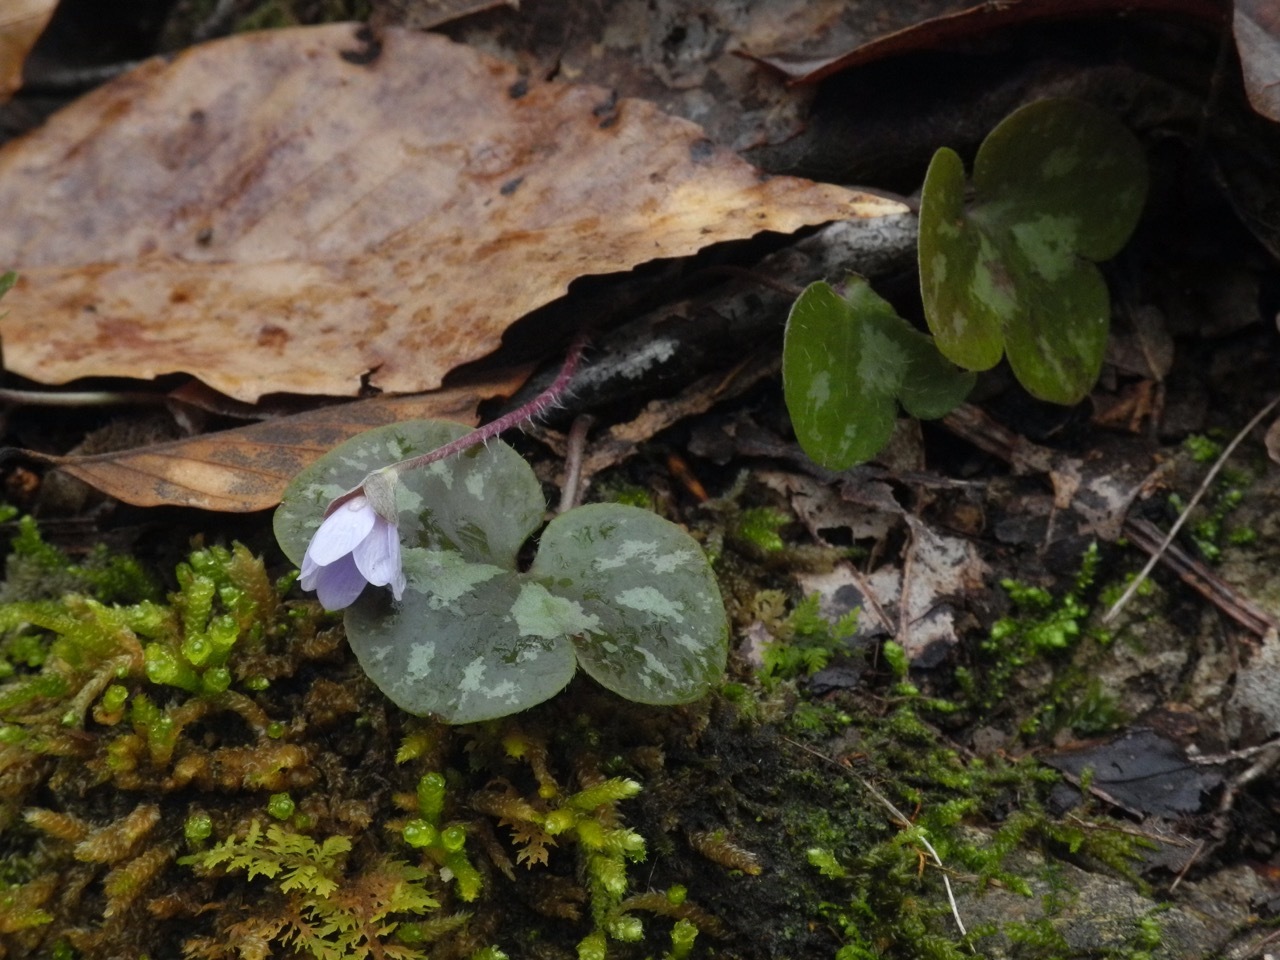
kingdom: Plantae
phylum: Tracheophyta
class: Magnoliopsida
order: Ranunculales
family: Ranunculaceae
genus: Hepatica
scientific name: Hepatica americana
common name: American hepatica
